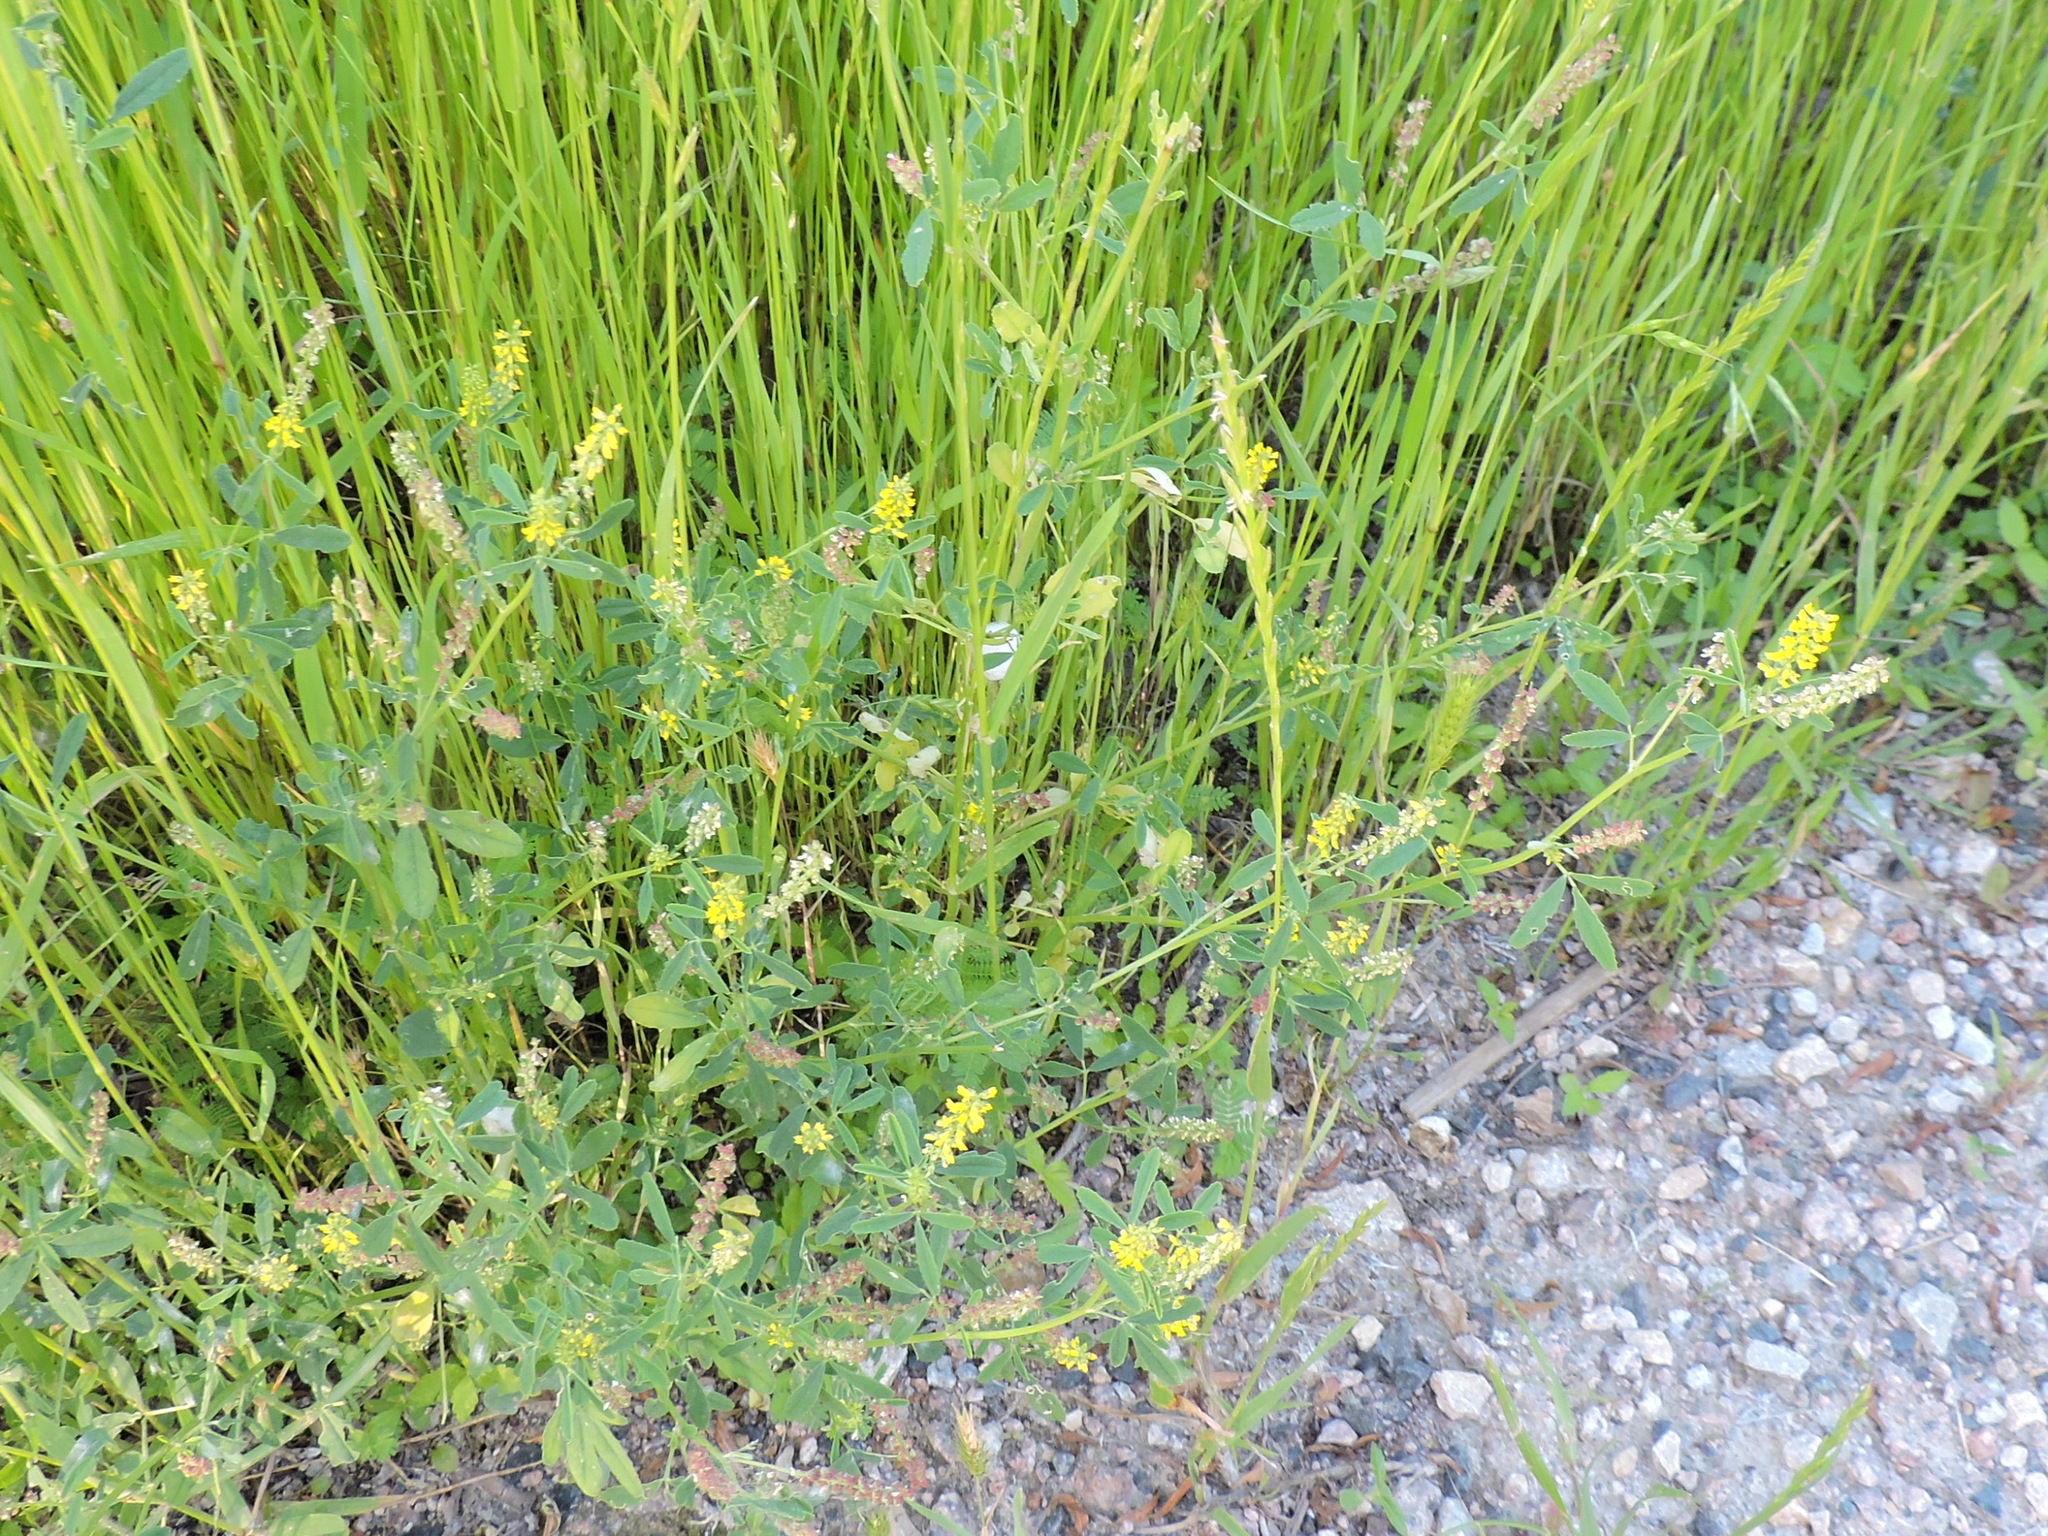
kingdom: Plantae
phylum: Tracheophyta
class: Magnoliopsida
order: Fabales
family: Fabaceae
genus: Melilotus
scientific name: Melilotus indicus
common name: Small melilot
